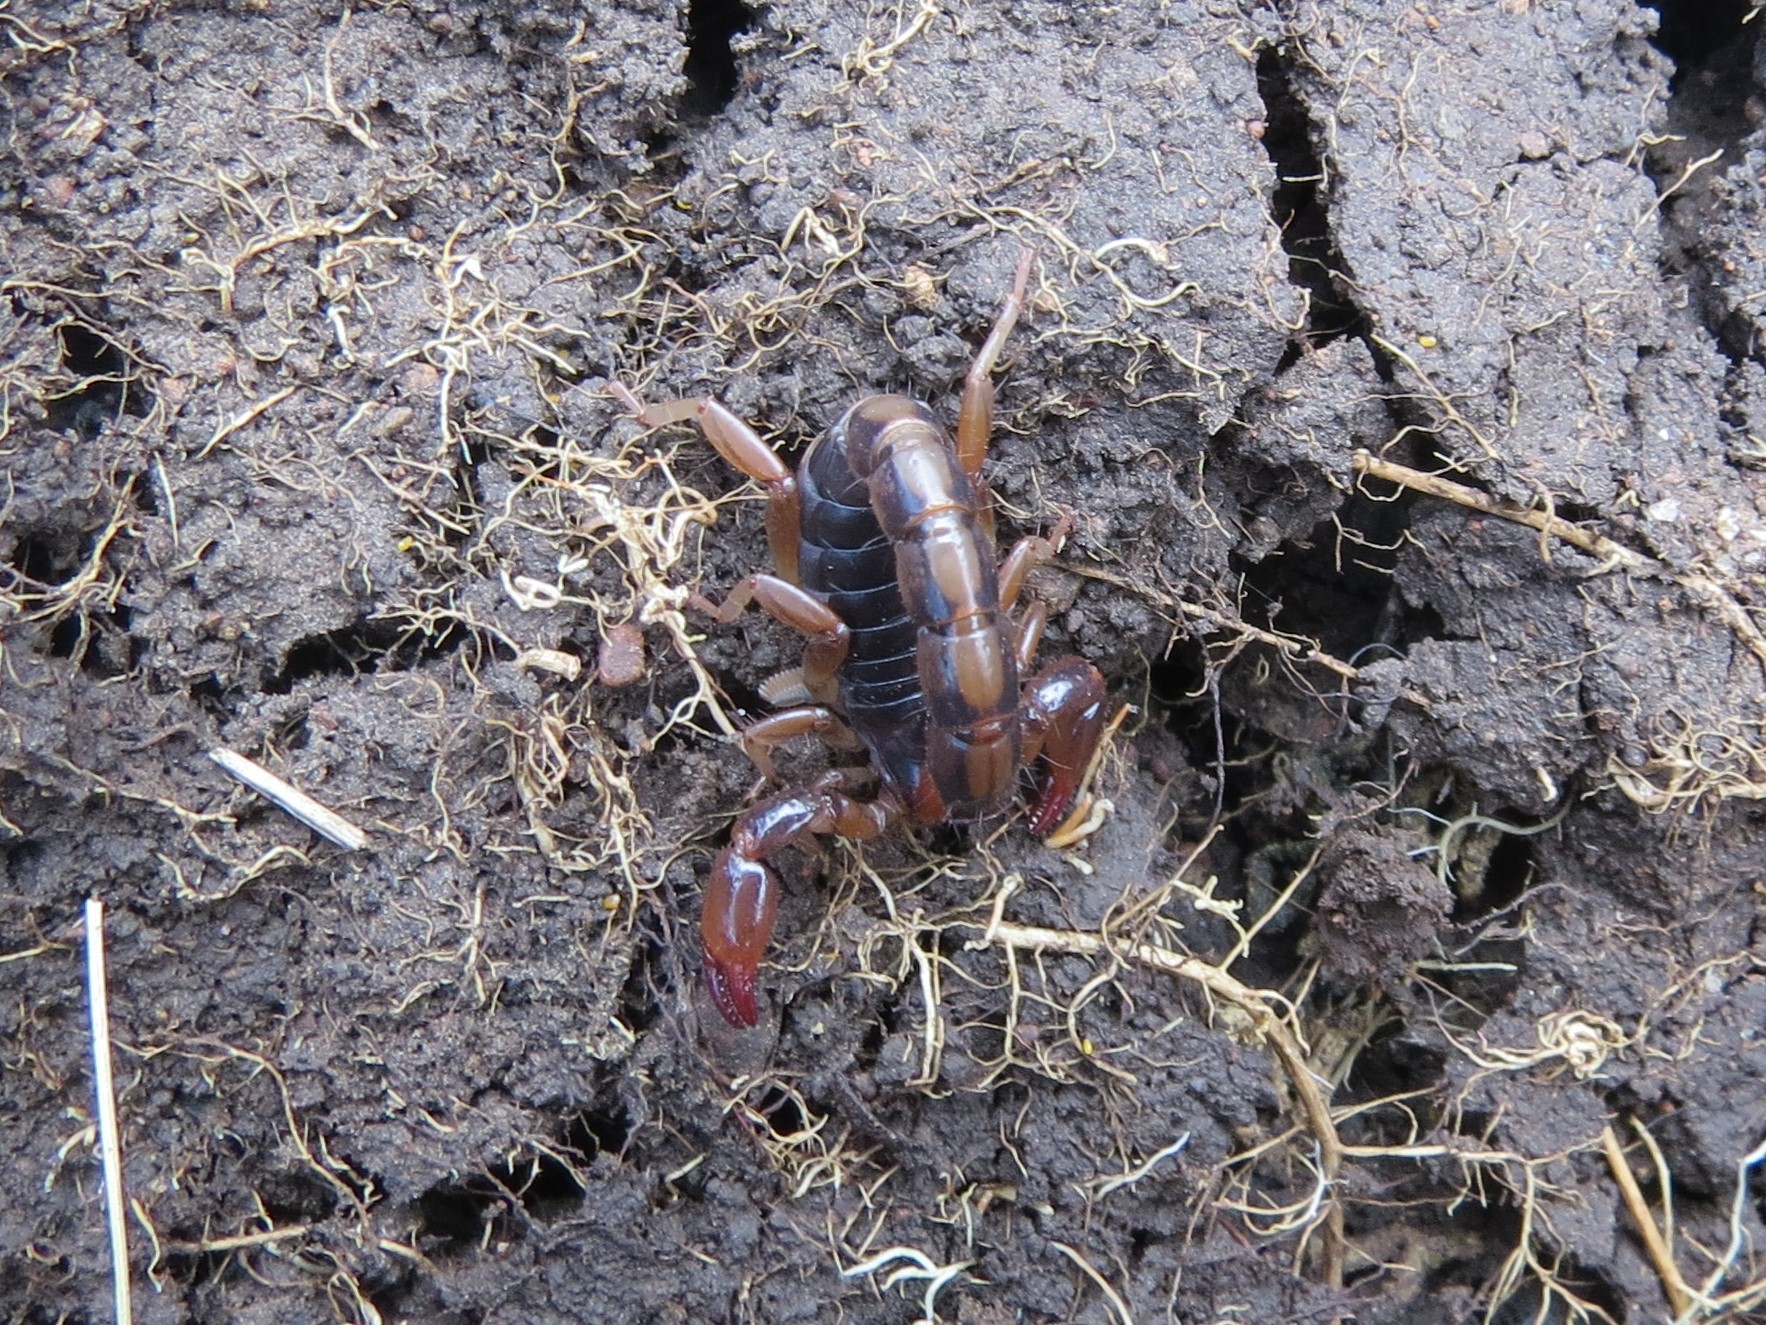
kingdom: Animalia
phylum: Arthropoda
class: Arachnida
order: Scorpiones
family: Bothriuridae
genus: Bothriurus
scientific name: Bothriurus bonariensis
